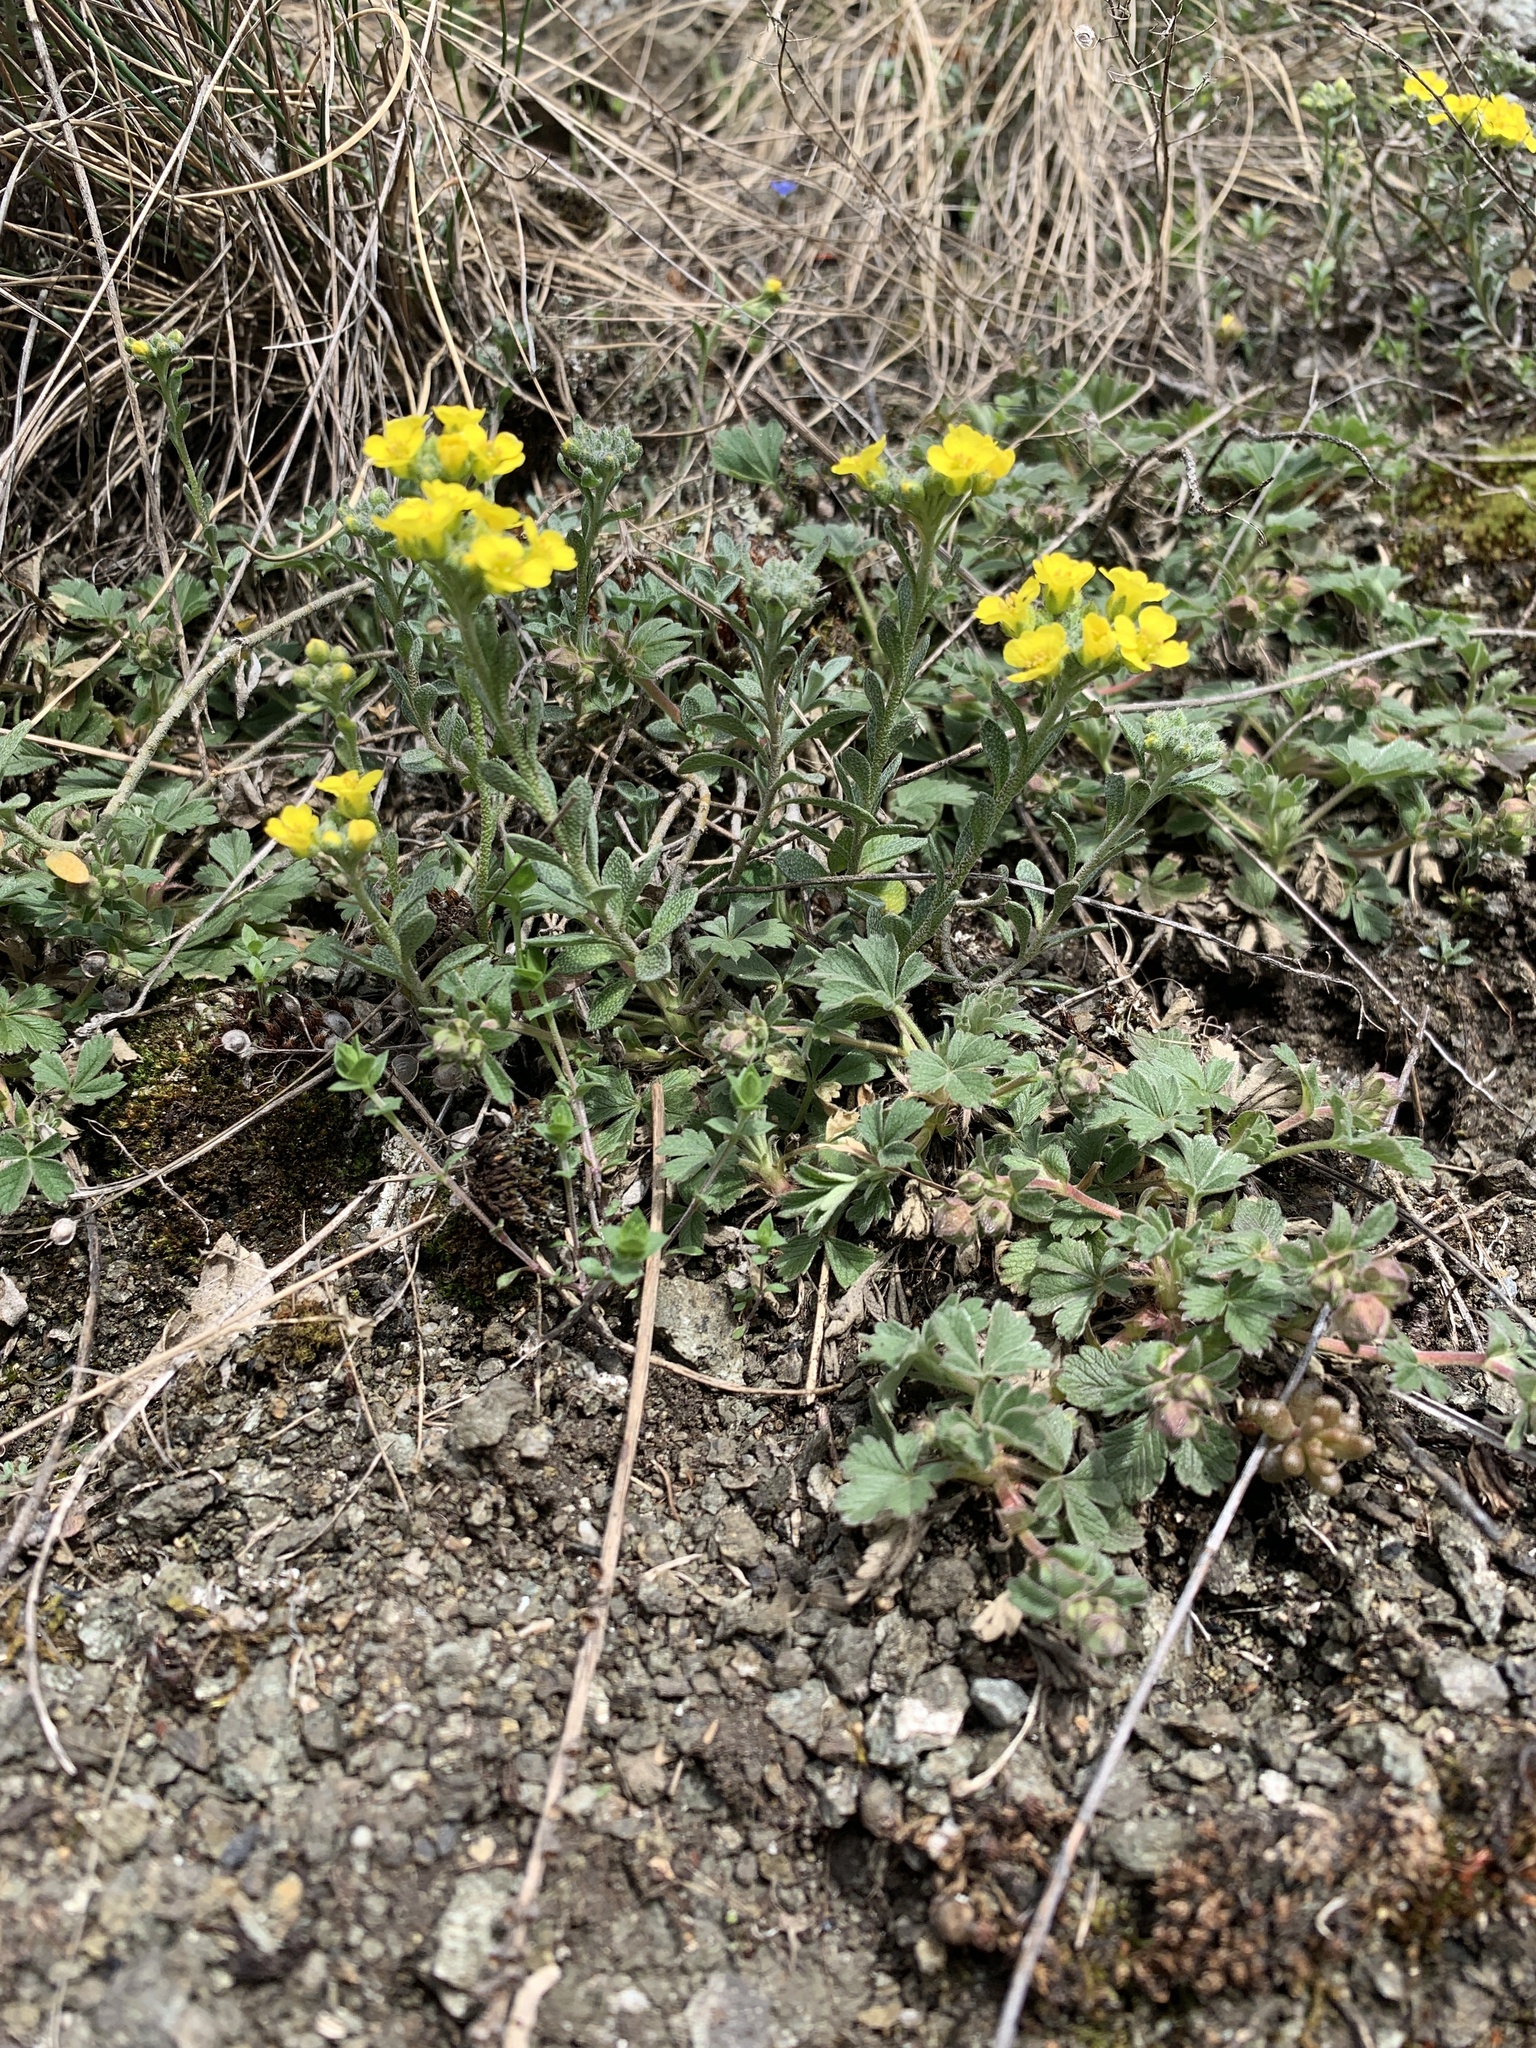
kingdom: Plantae
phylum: Tracheophyta
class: Magnoliopsida
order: Brassicales
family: Brassicaceae
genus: Alyssum
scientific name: Alyssum gmelinii
